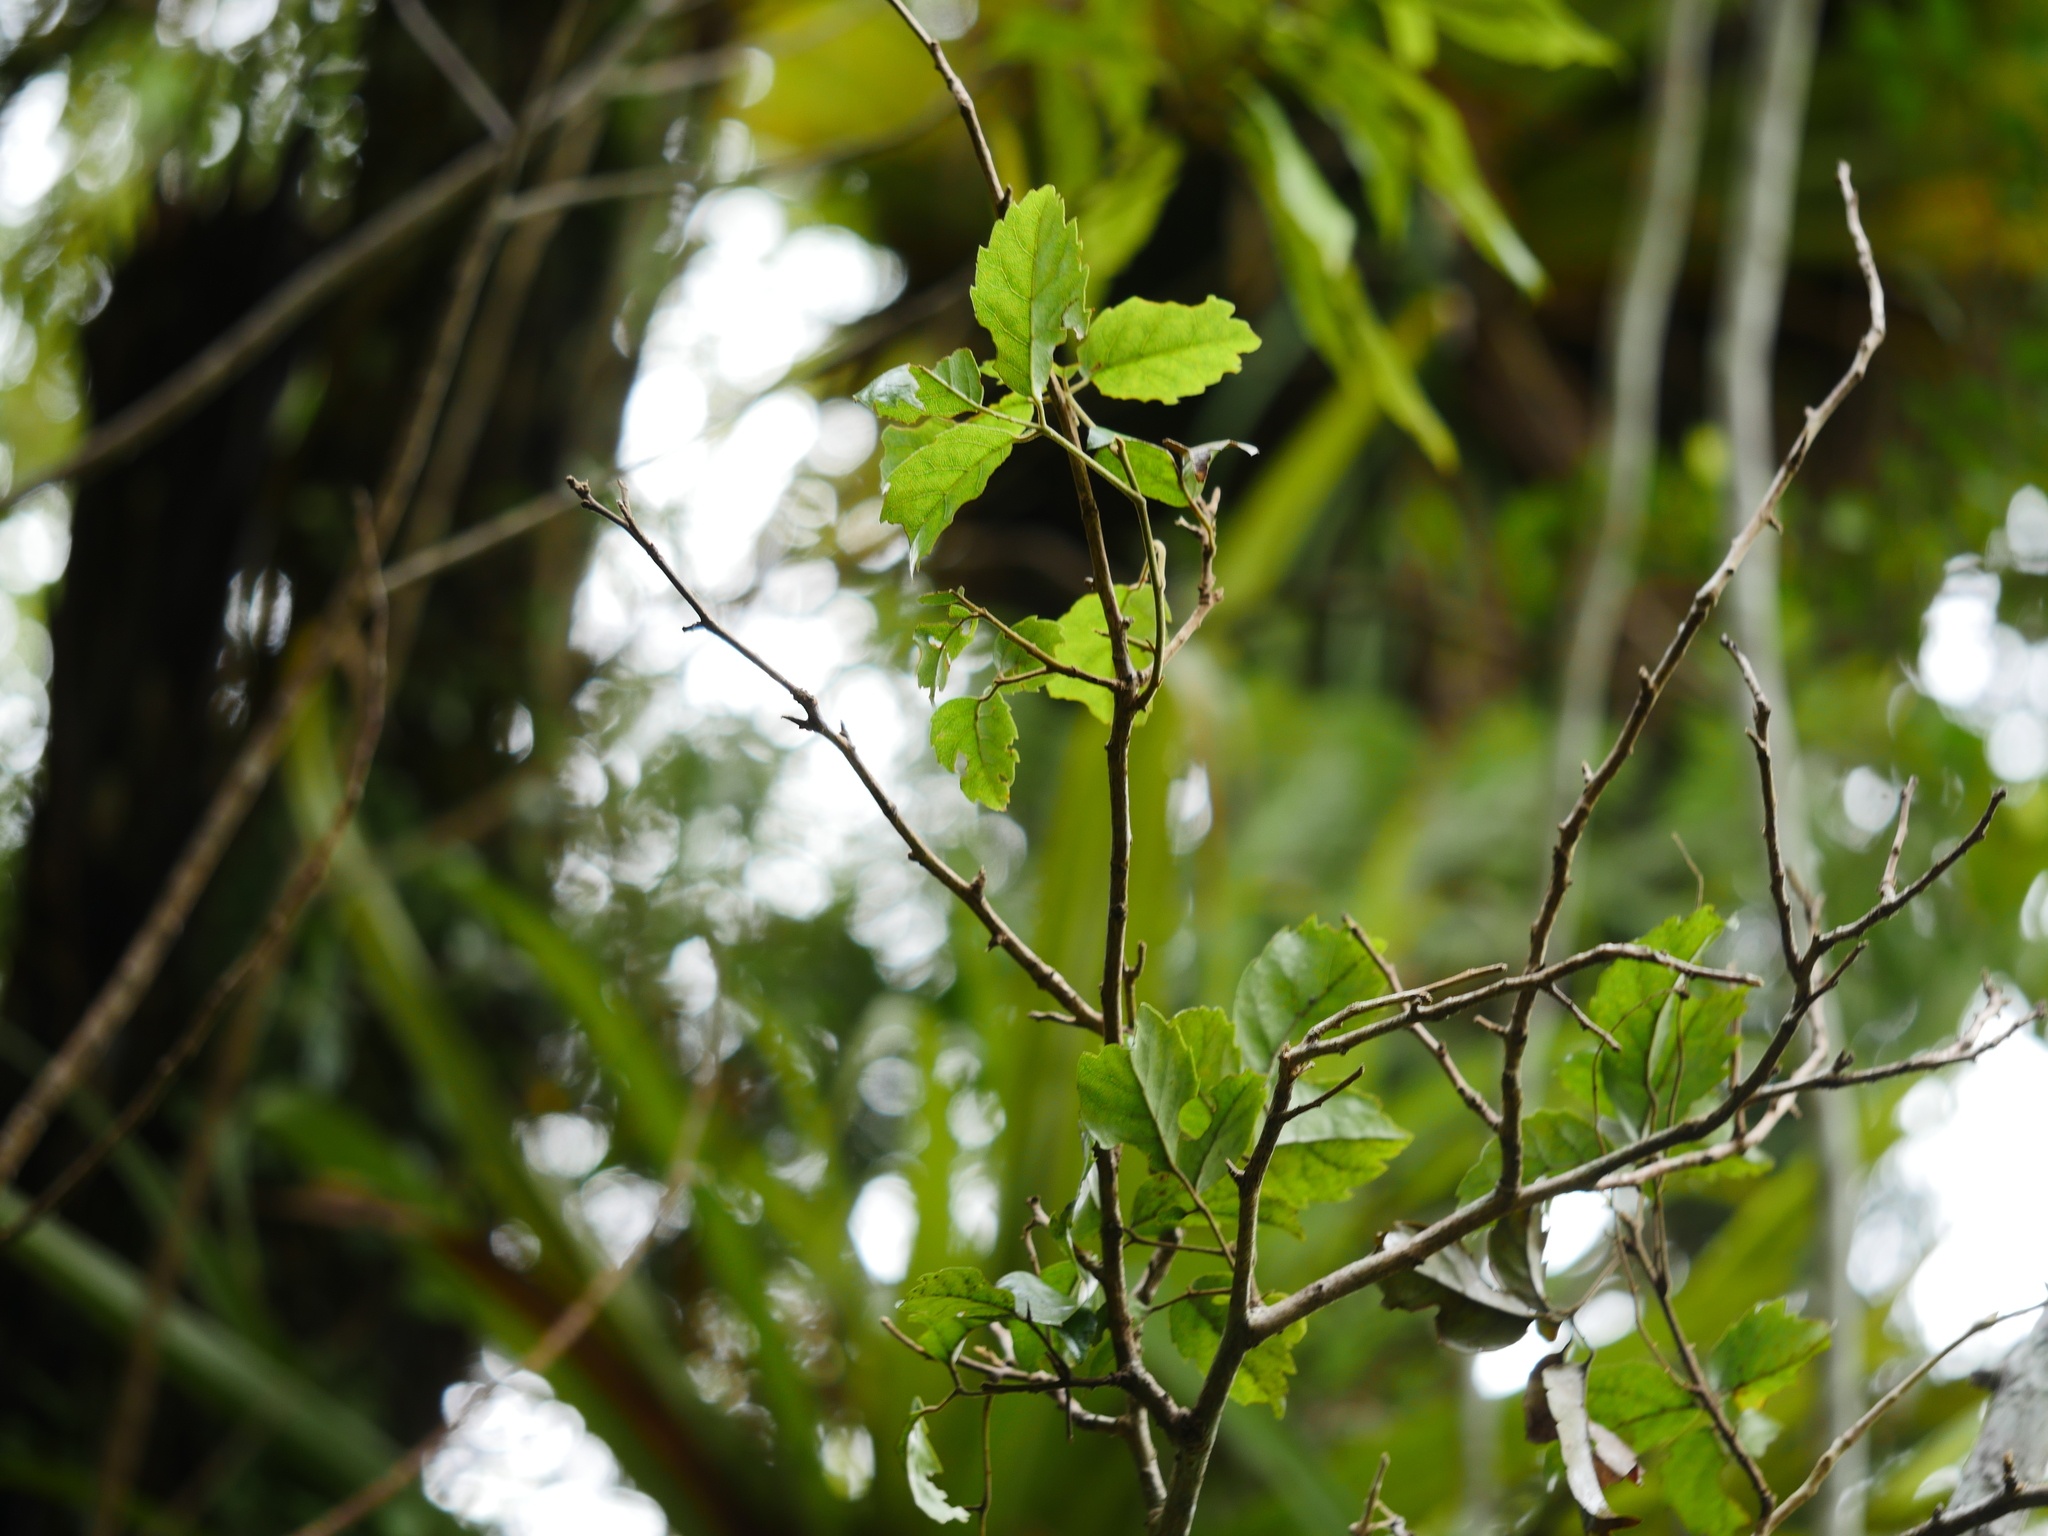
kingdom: Plantae
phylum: Tracheophyta
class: Magnoliopsida
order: Rosales
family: Rosaceae
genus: Rubus
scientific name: Rubus australis
